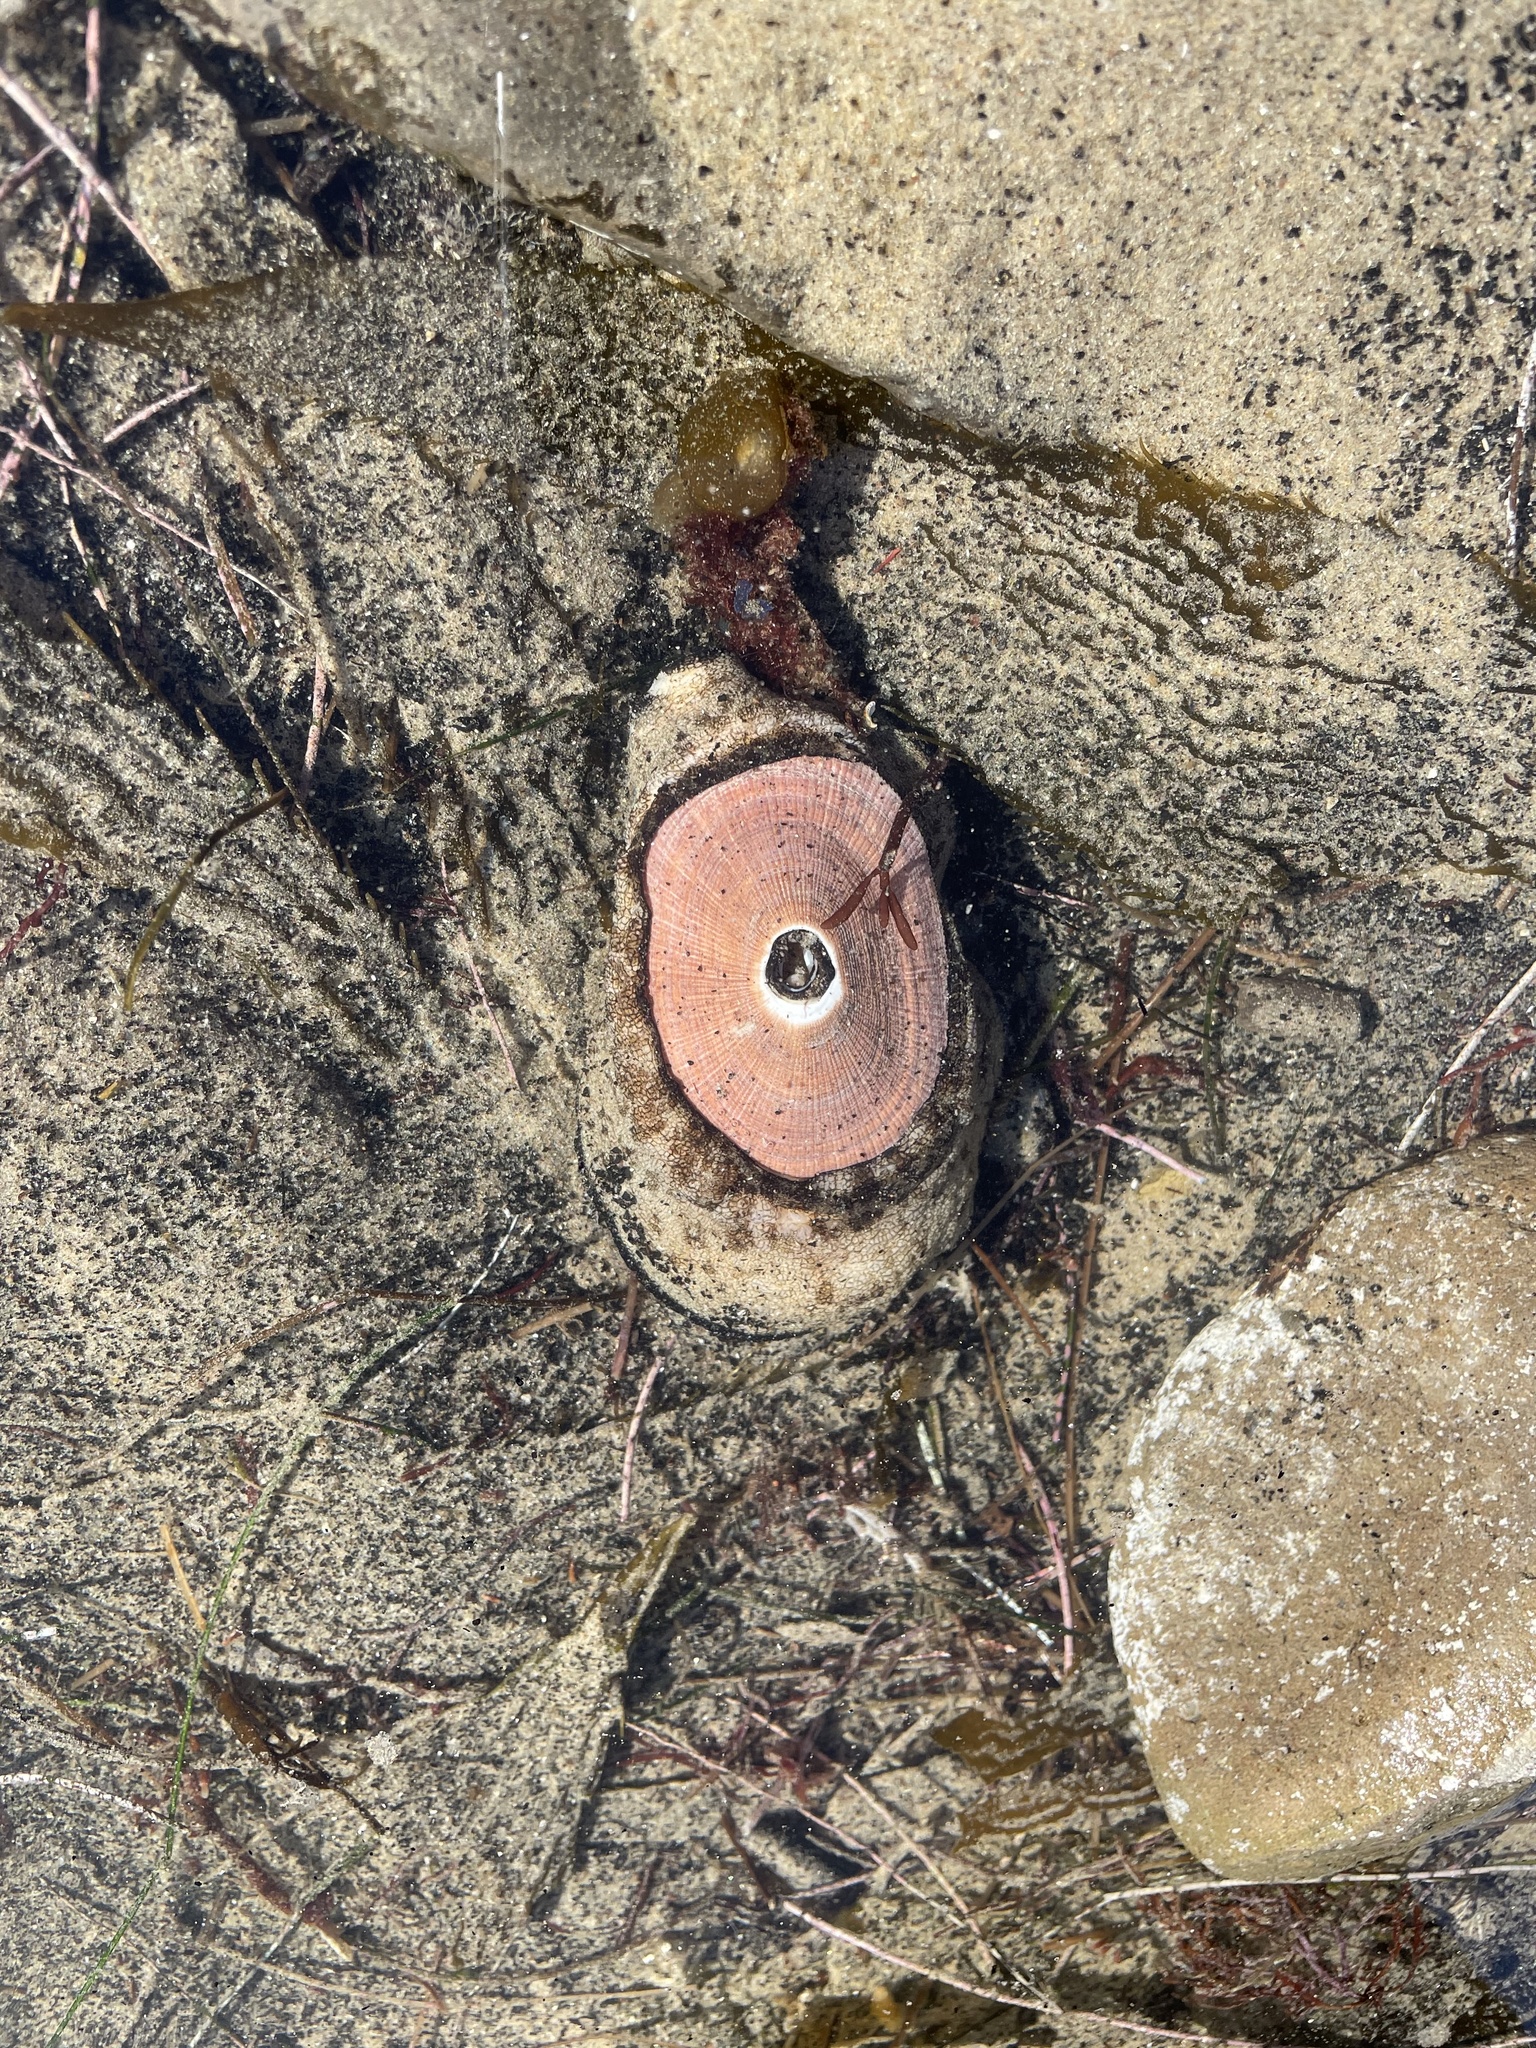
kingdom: Animalia
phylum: Mollusca
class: Gastropoda
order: Lepetellida
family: Fissurellidae
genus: Megathura
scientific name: Megathura crenulata
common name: Giant keyhole limpet
